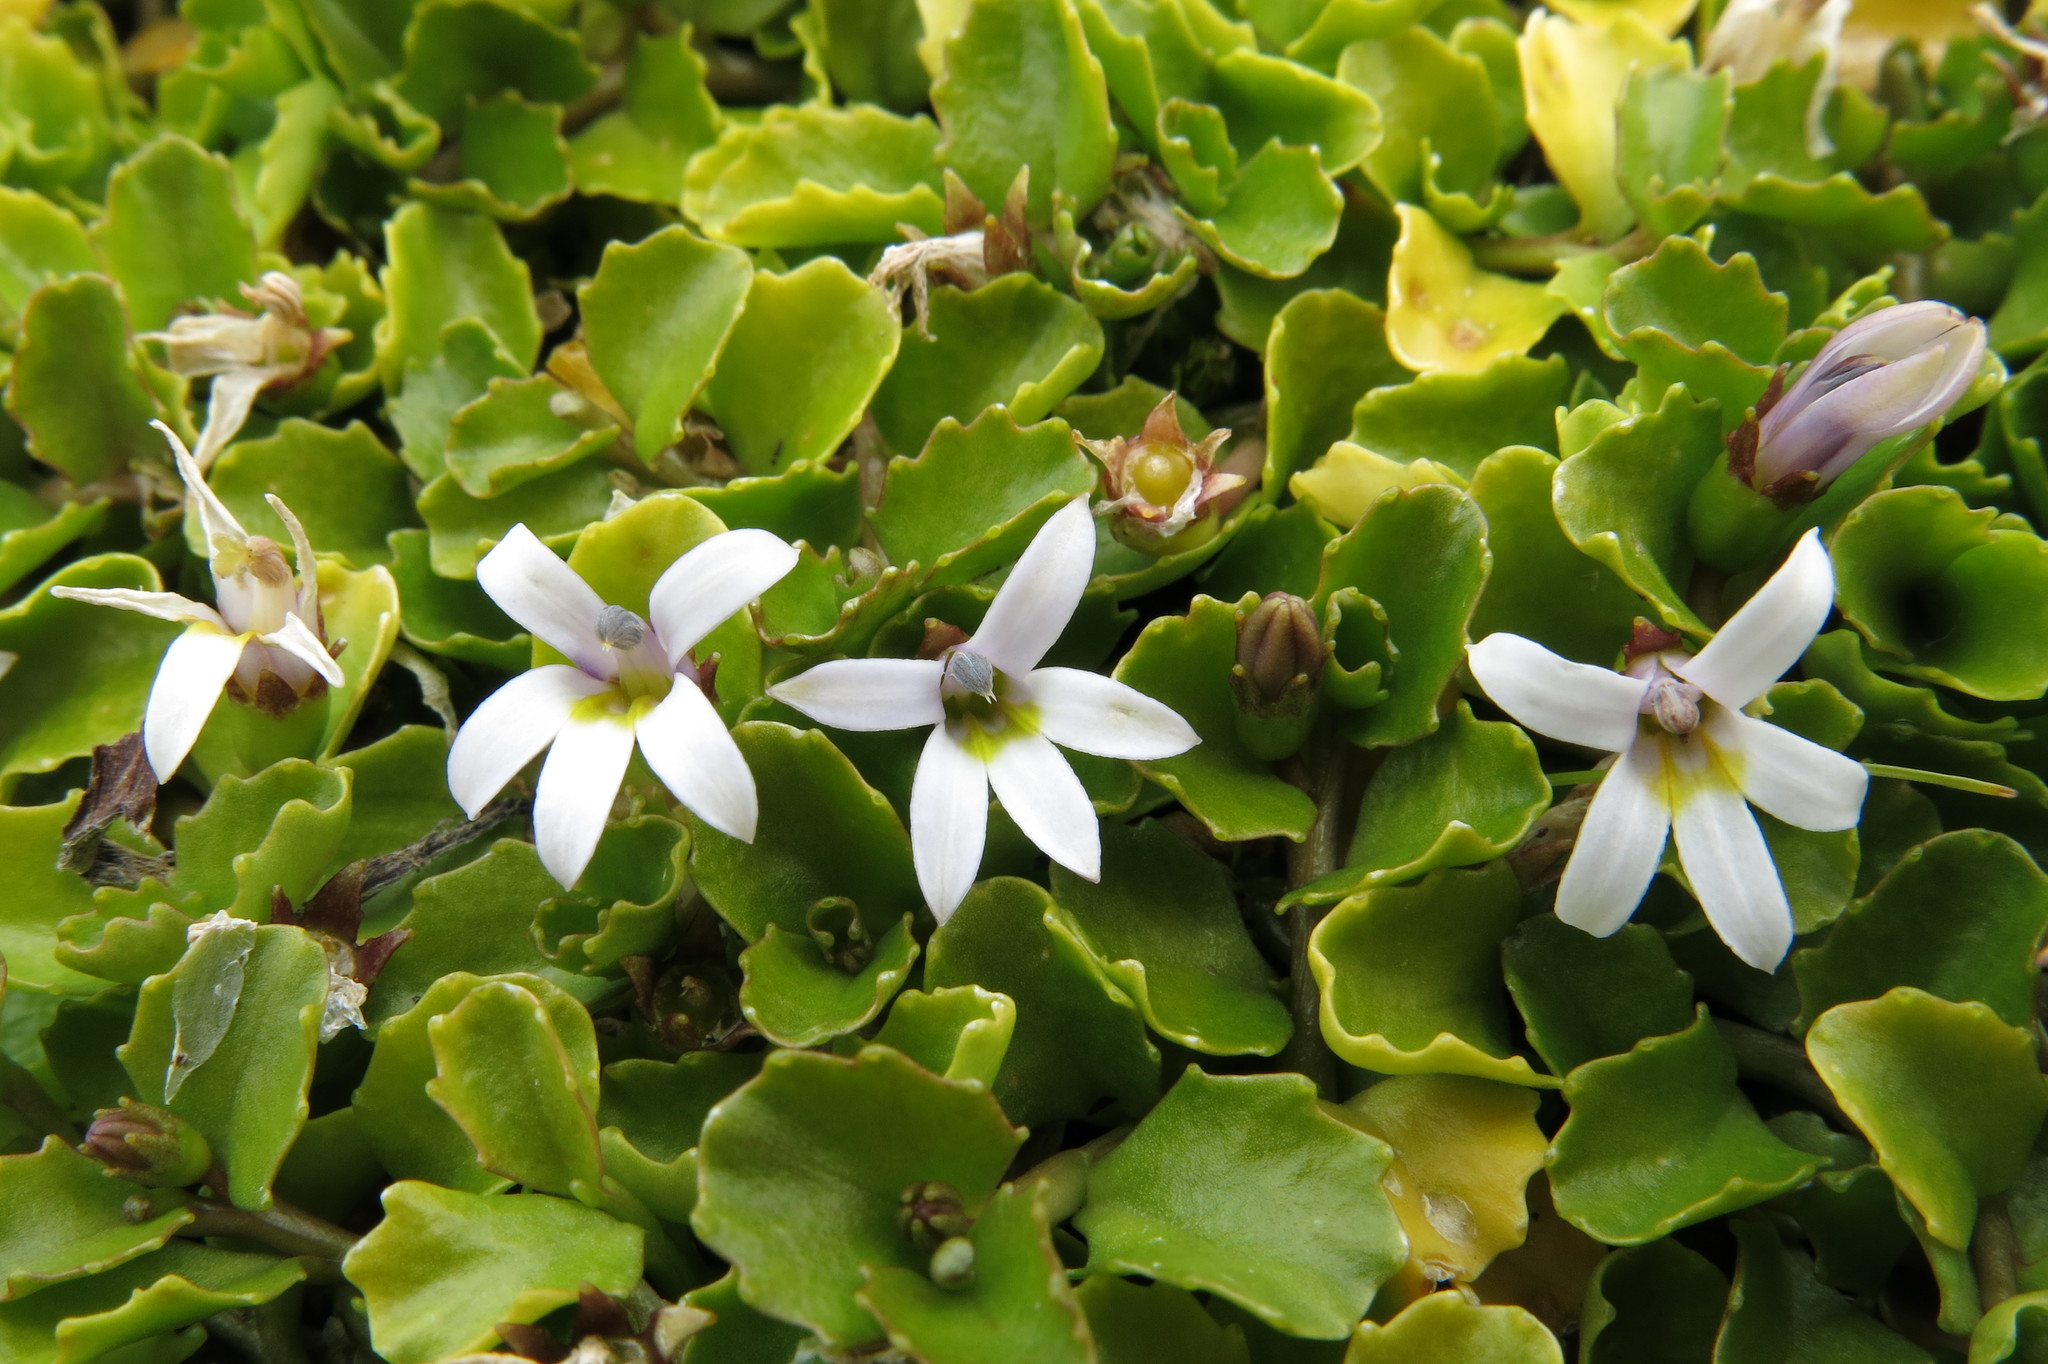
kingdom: Plantae
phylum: Tracheophyta
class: Magnoliopsida
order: Asterales
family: Campanulaceae
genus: Lobelia
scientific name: Lobelia arenaria
